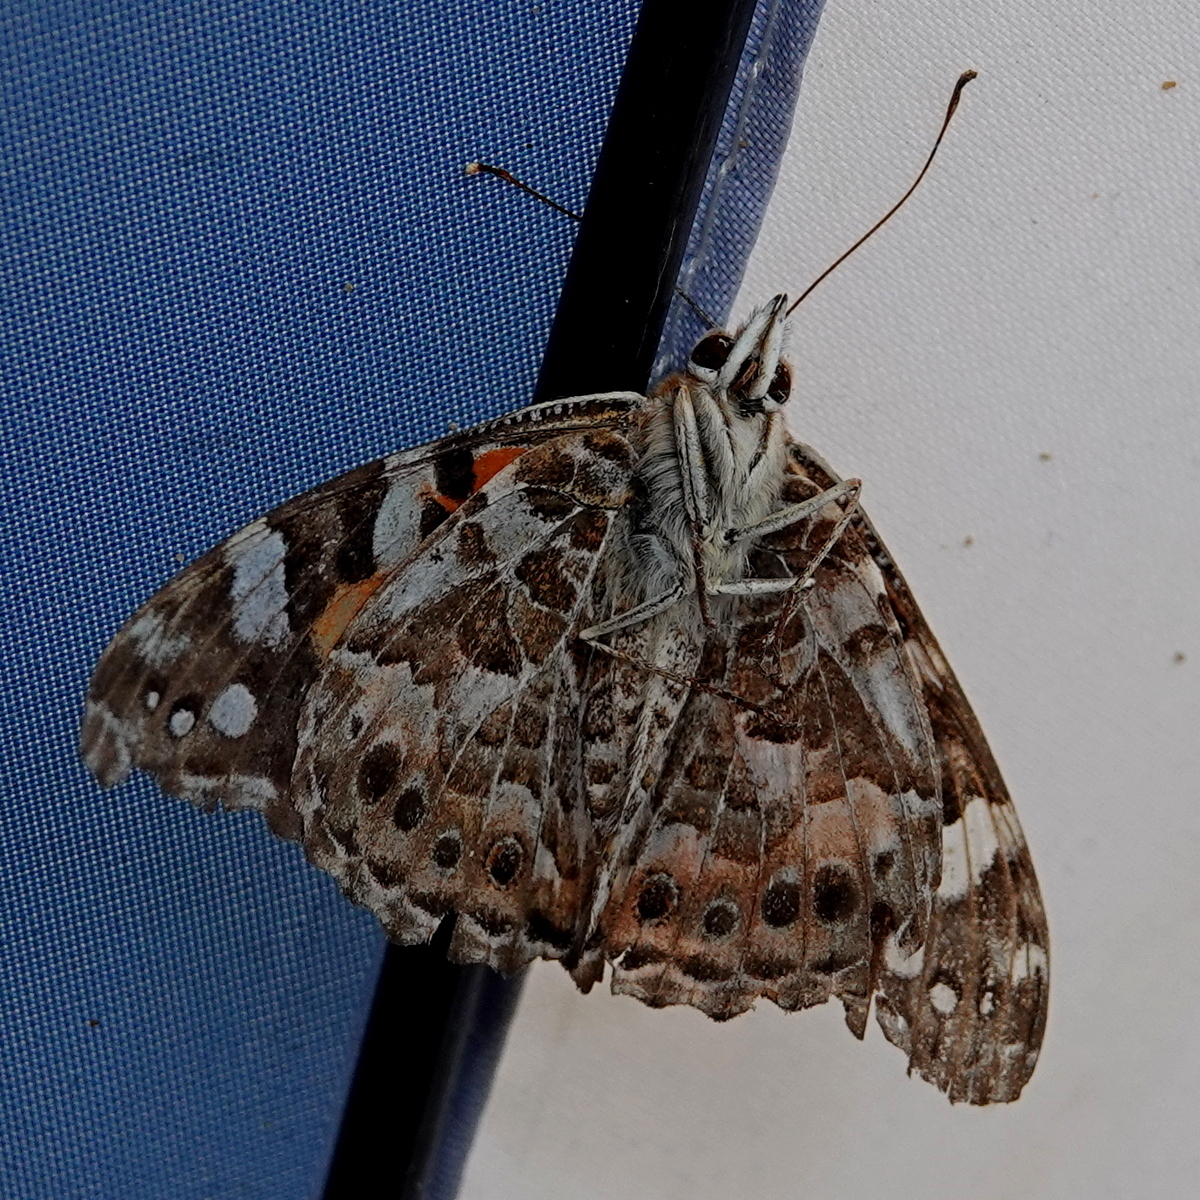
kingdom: Animalia
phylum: Arthropoda
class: Insecta
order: Lepidoptera
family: Nymphalidae
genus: Vanessa
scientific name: Vanessa kershawi
